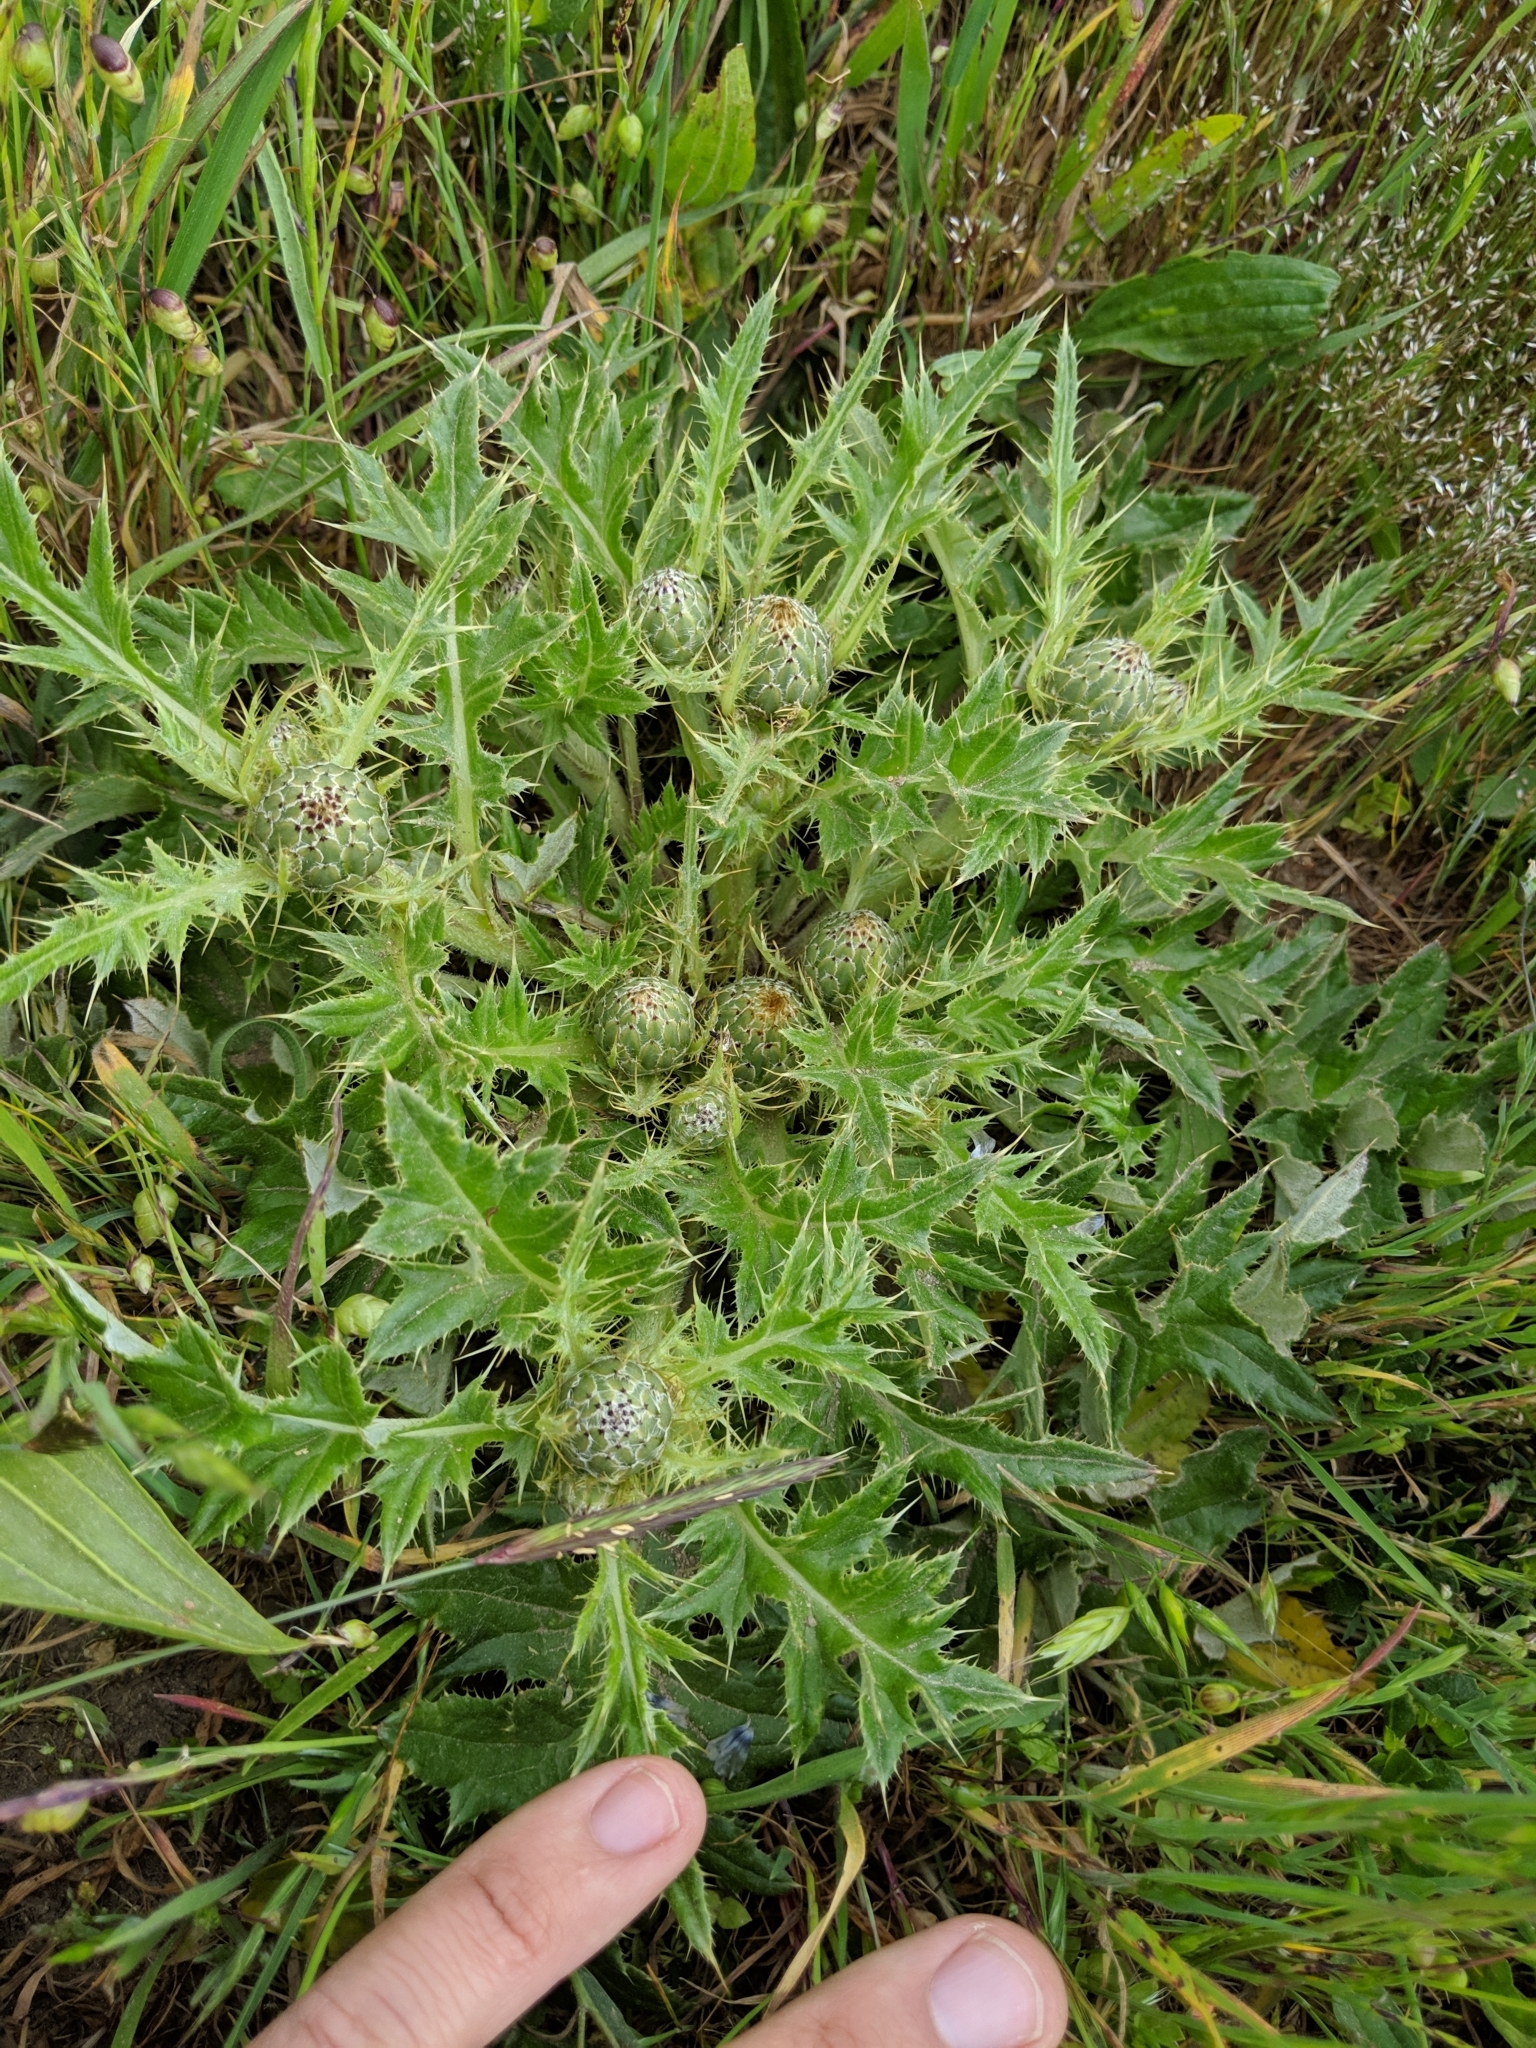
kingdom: Plantae
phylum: Tracheophyta
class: Magnoliopsida
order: Asterales
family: Asteraceae
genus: Cirsium
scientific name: Cirsium quercetorum
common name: Alameda county thistle
